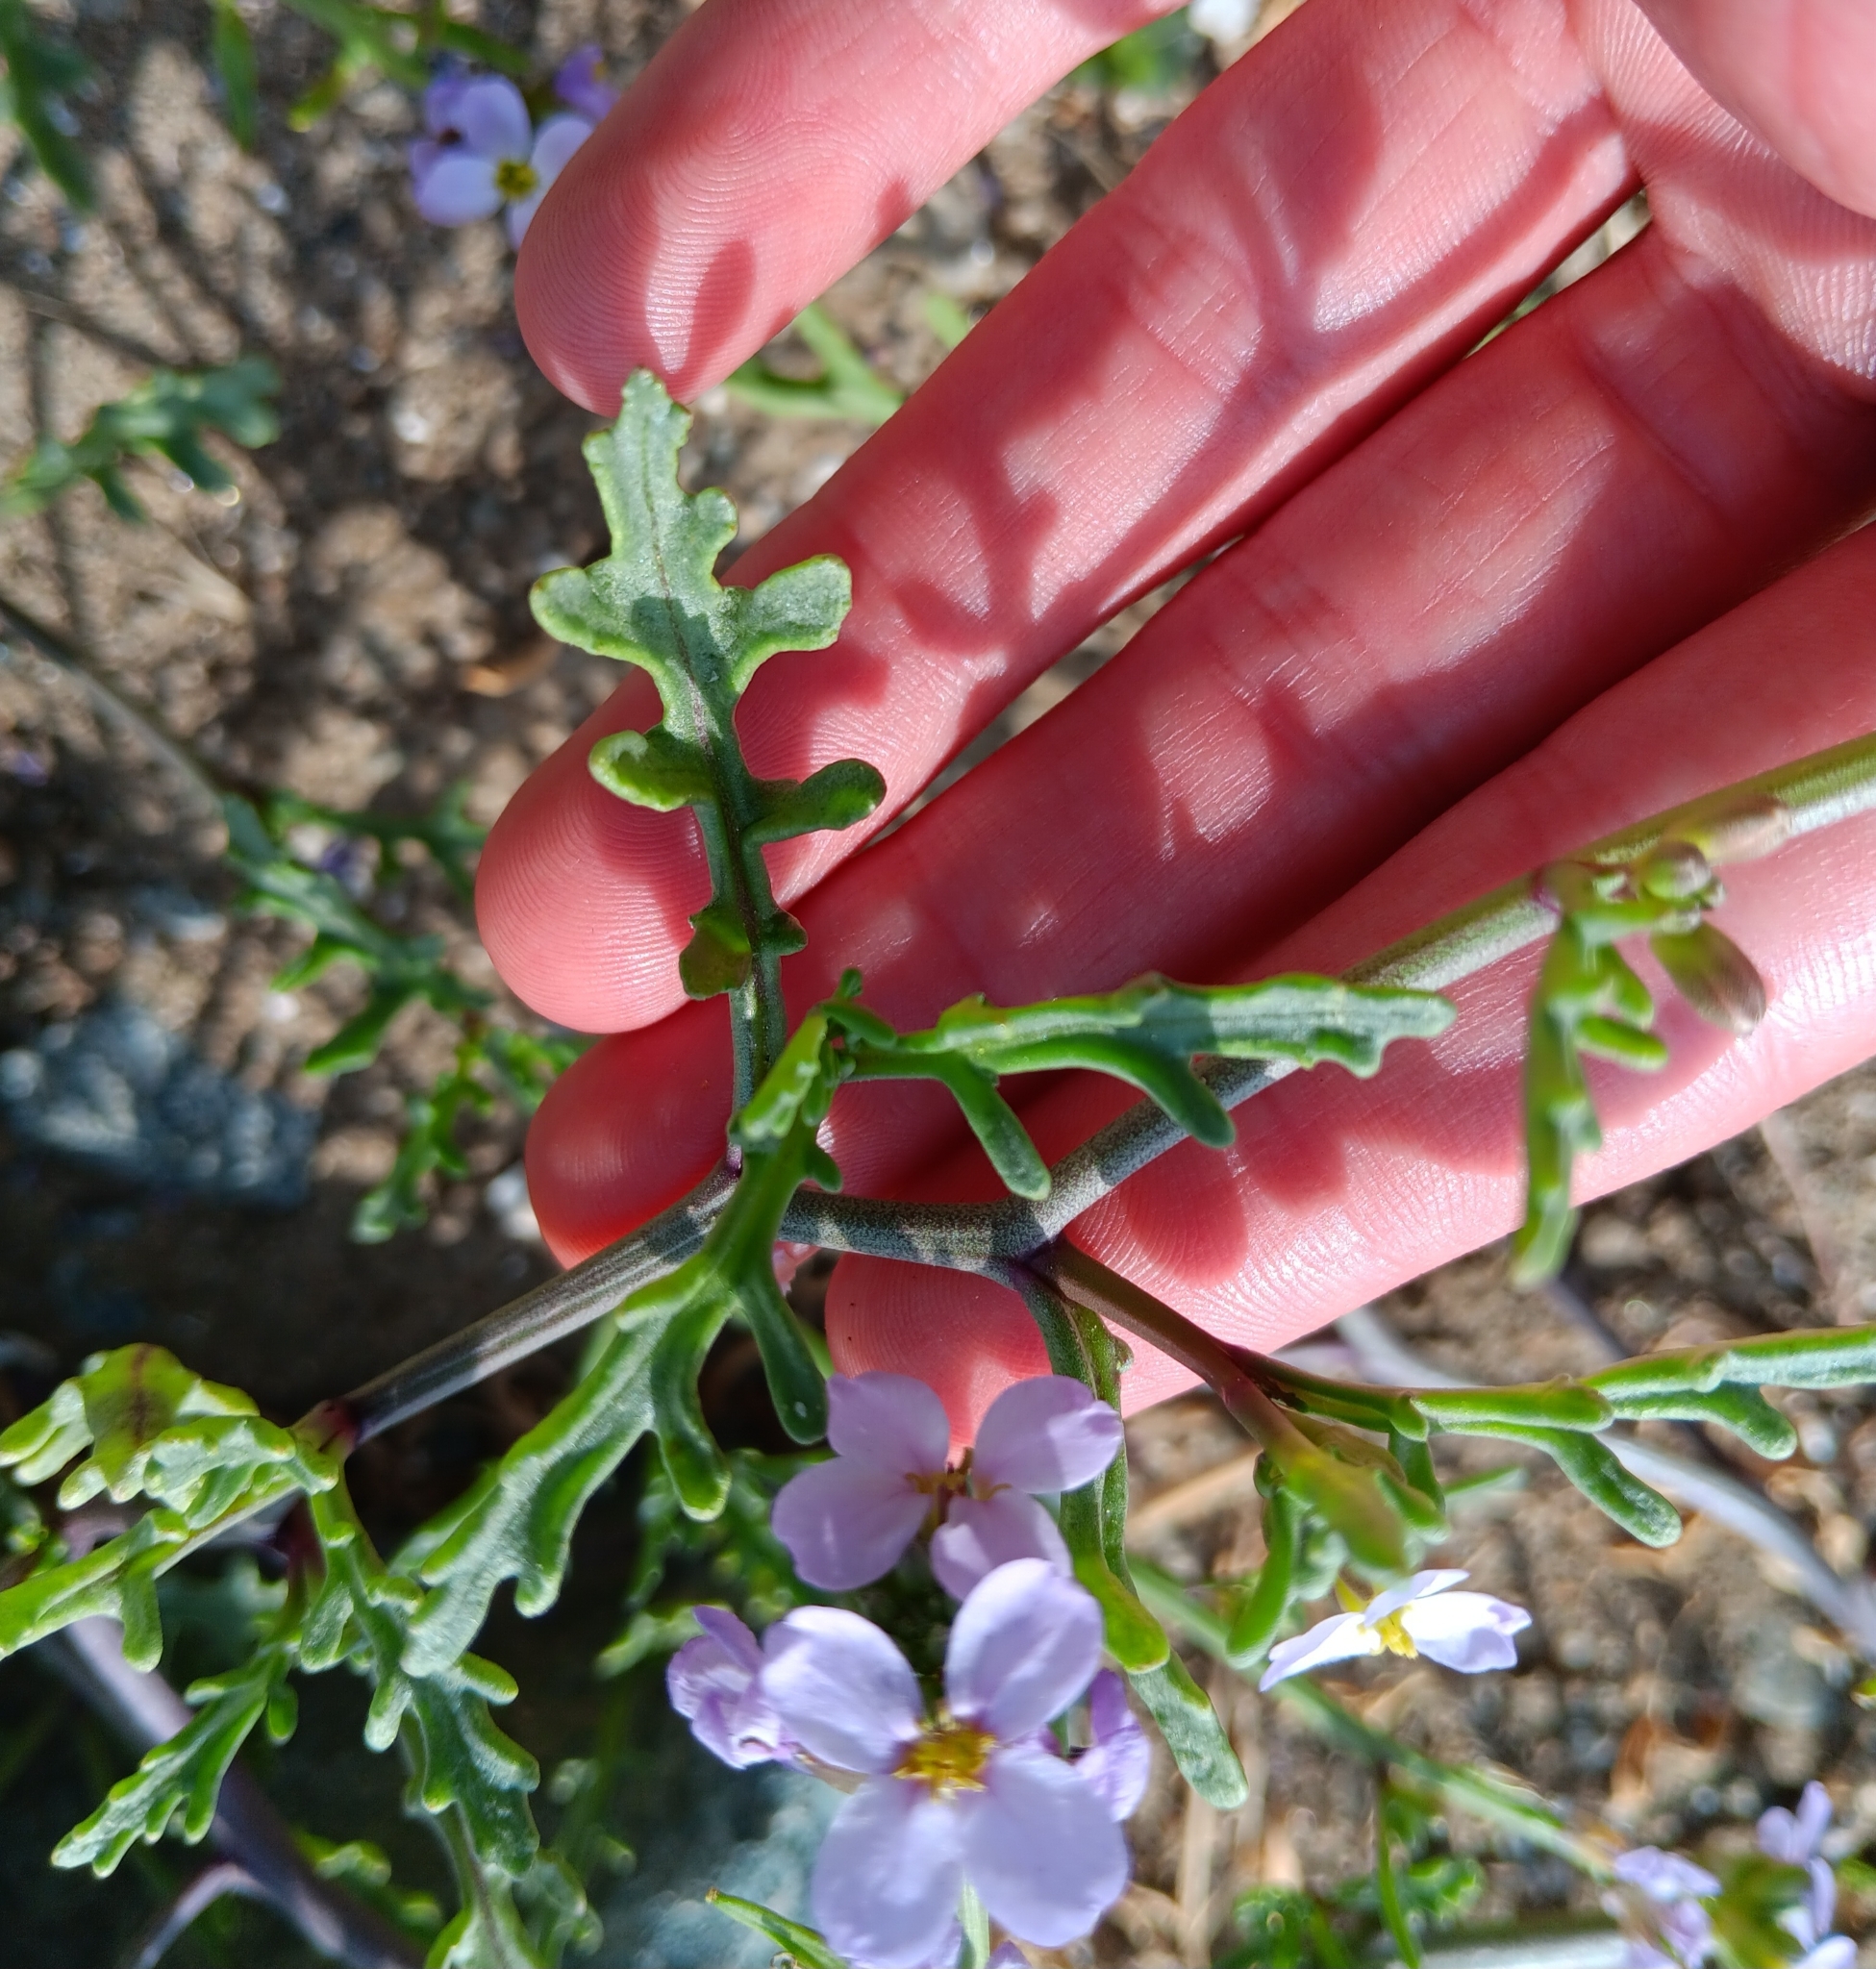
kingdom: Plantae
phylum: Tracheophyta
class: Magnoliopsida
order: Brassicales
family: Brassicaceae
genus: Cakile
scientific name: Cakile maritima
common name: Sea rocket
